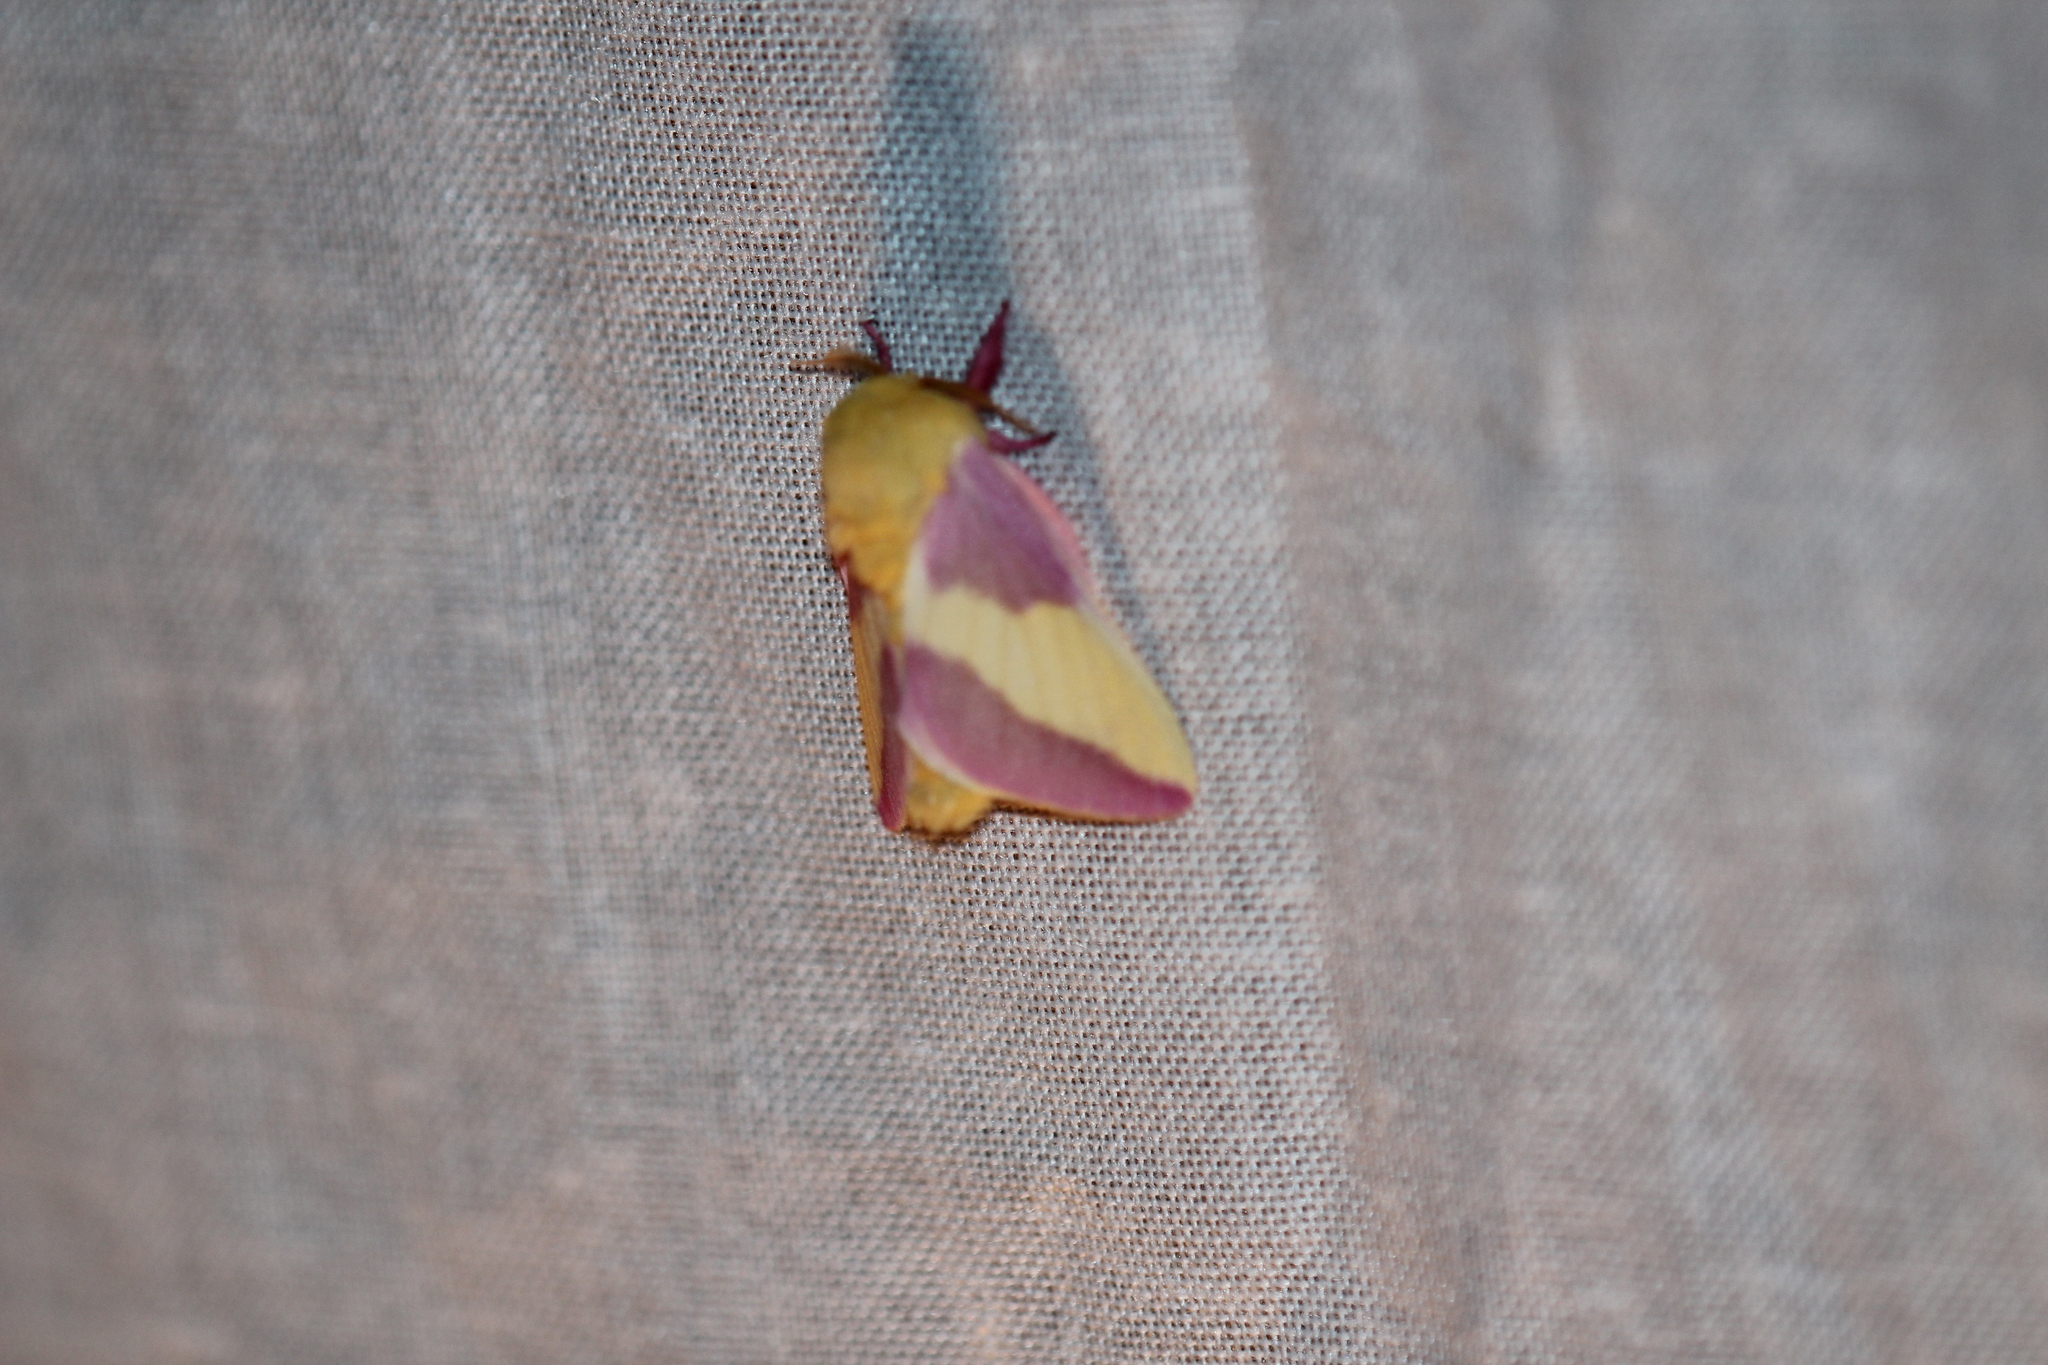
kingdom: Animalia
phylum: Arthropoda
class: Insecta
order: Lepidoptera
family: Saturniidae
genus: Dryocampa
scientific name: Dryocampa rubicunda
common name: Rosy maple moth
